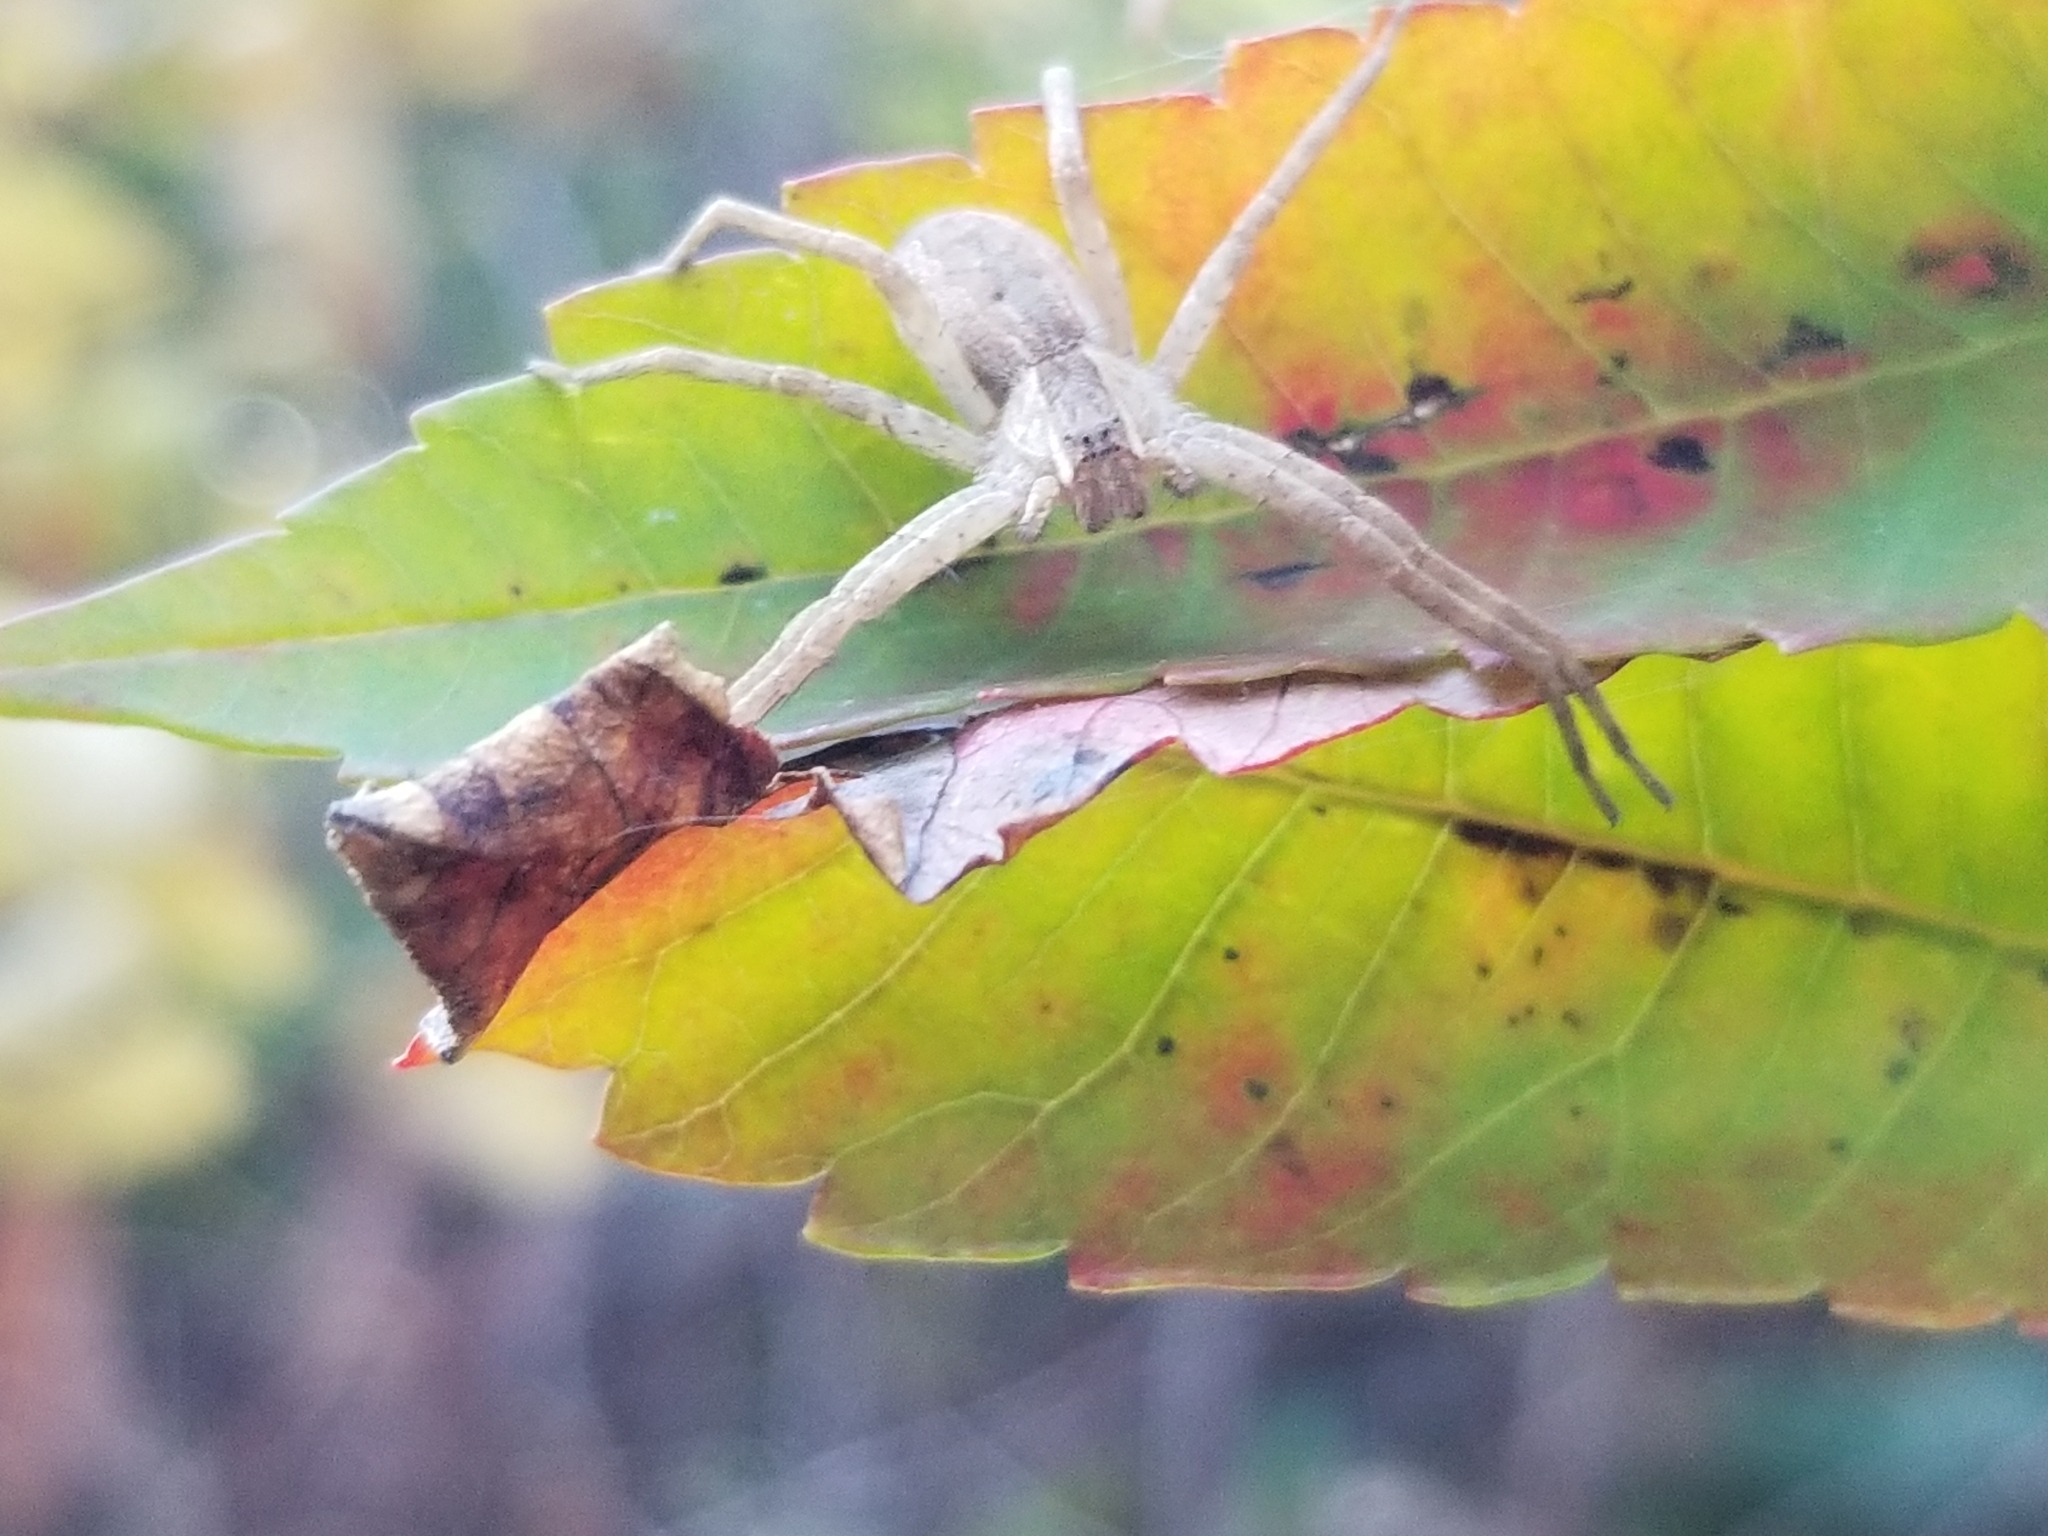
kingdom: Animalia
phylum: Arthropoda
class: Arachnida
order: Araneae
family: Pisauridae
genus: Pisaurina
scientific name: Pisaurina mira
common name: American nursery web spider
